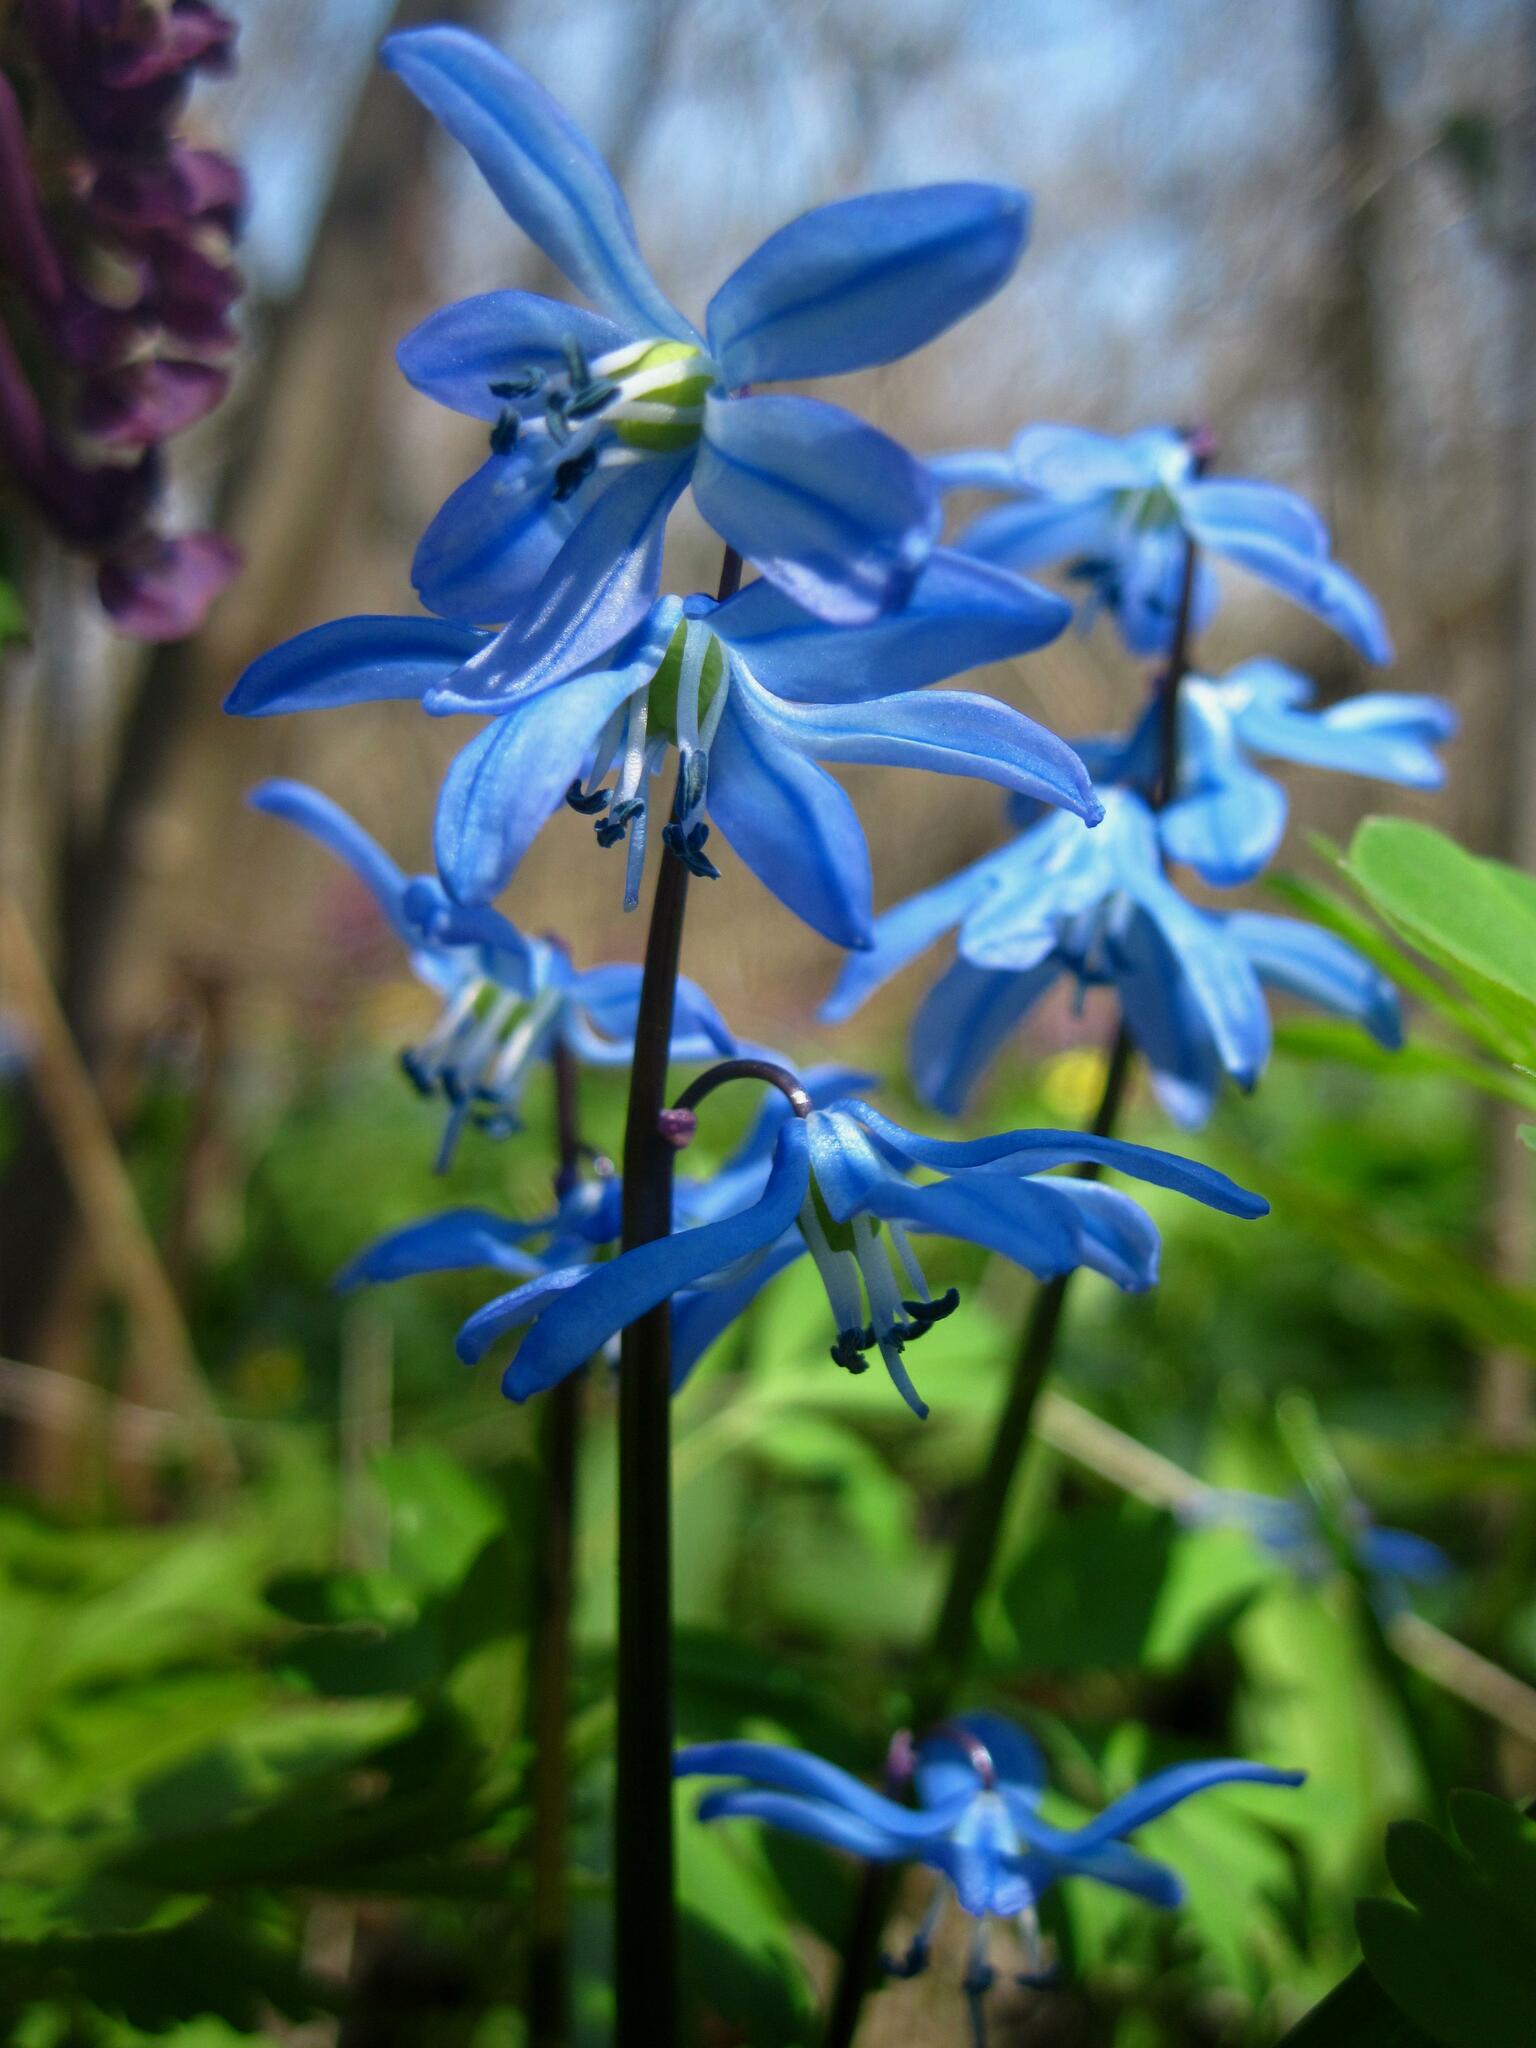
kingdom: Plantae
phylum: Tracheophyta
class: Liliopsida
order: Asparagales
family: Asparagaceae
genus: Scilla
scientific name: Scilla siberica
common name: Siberian squill
